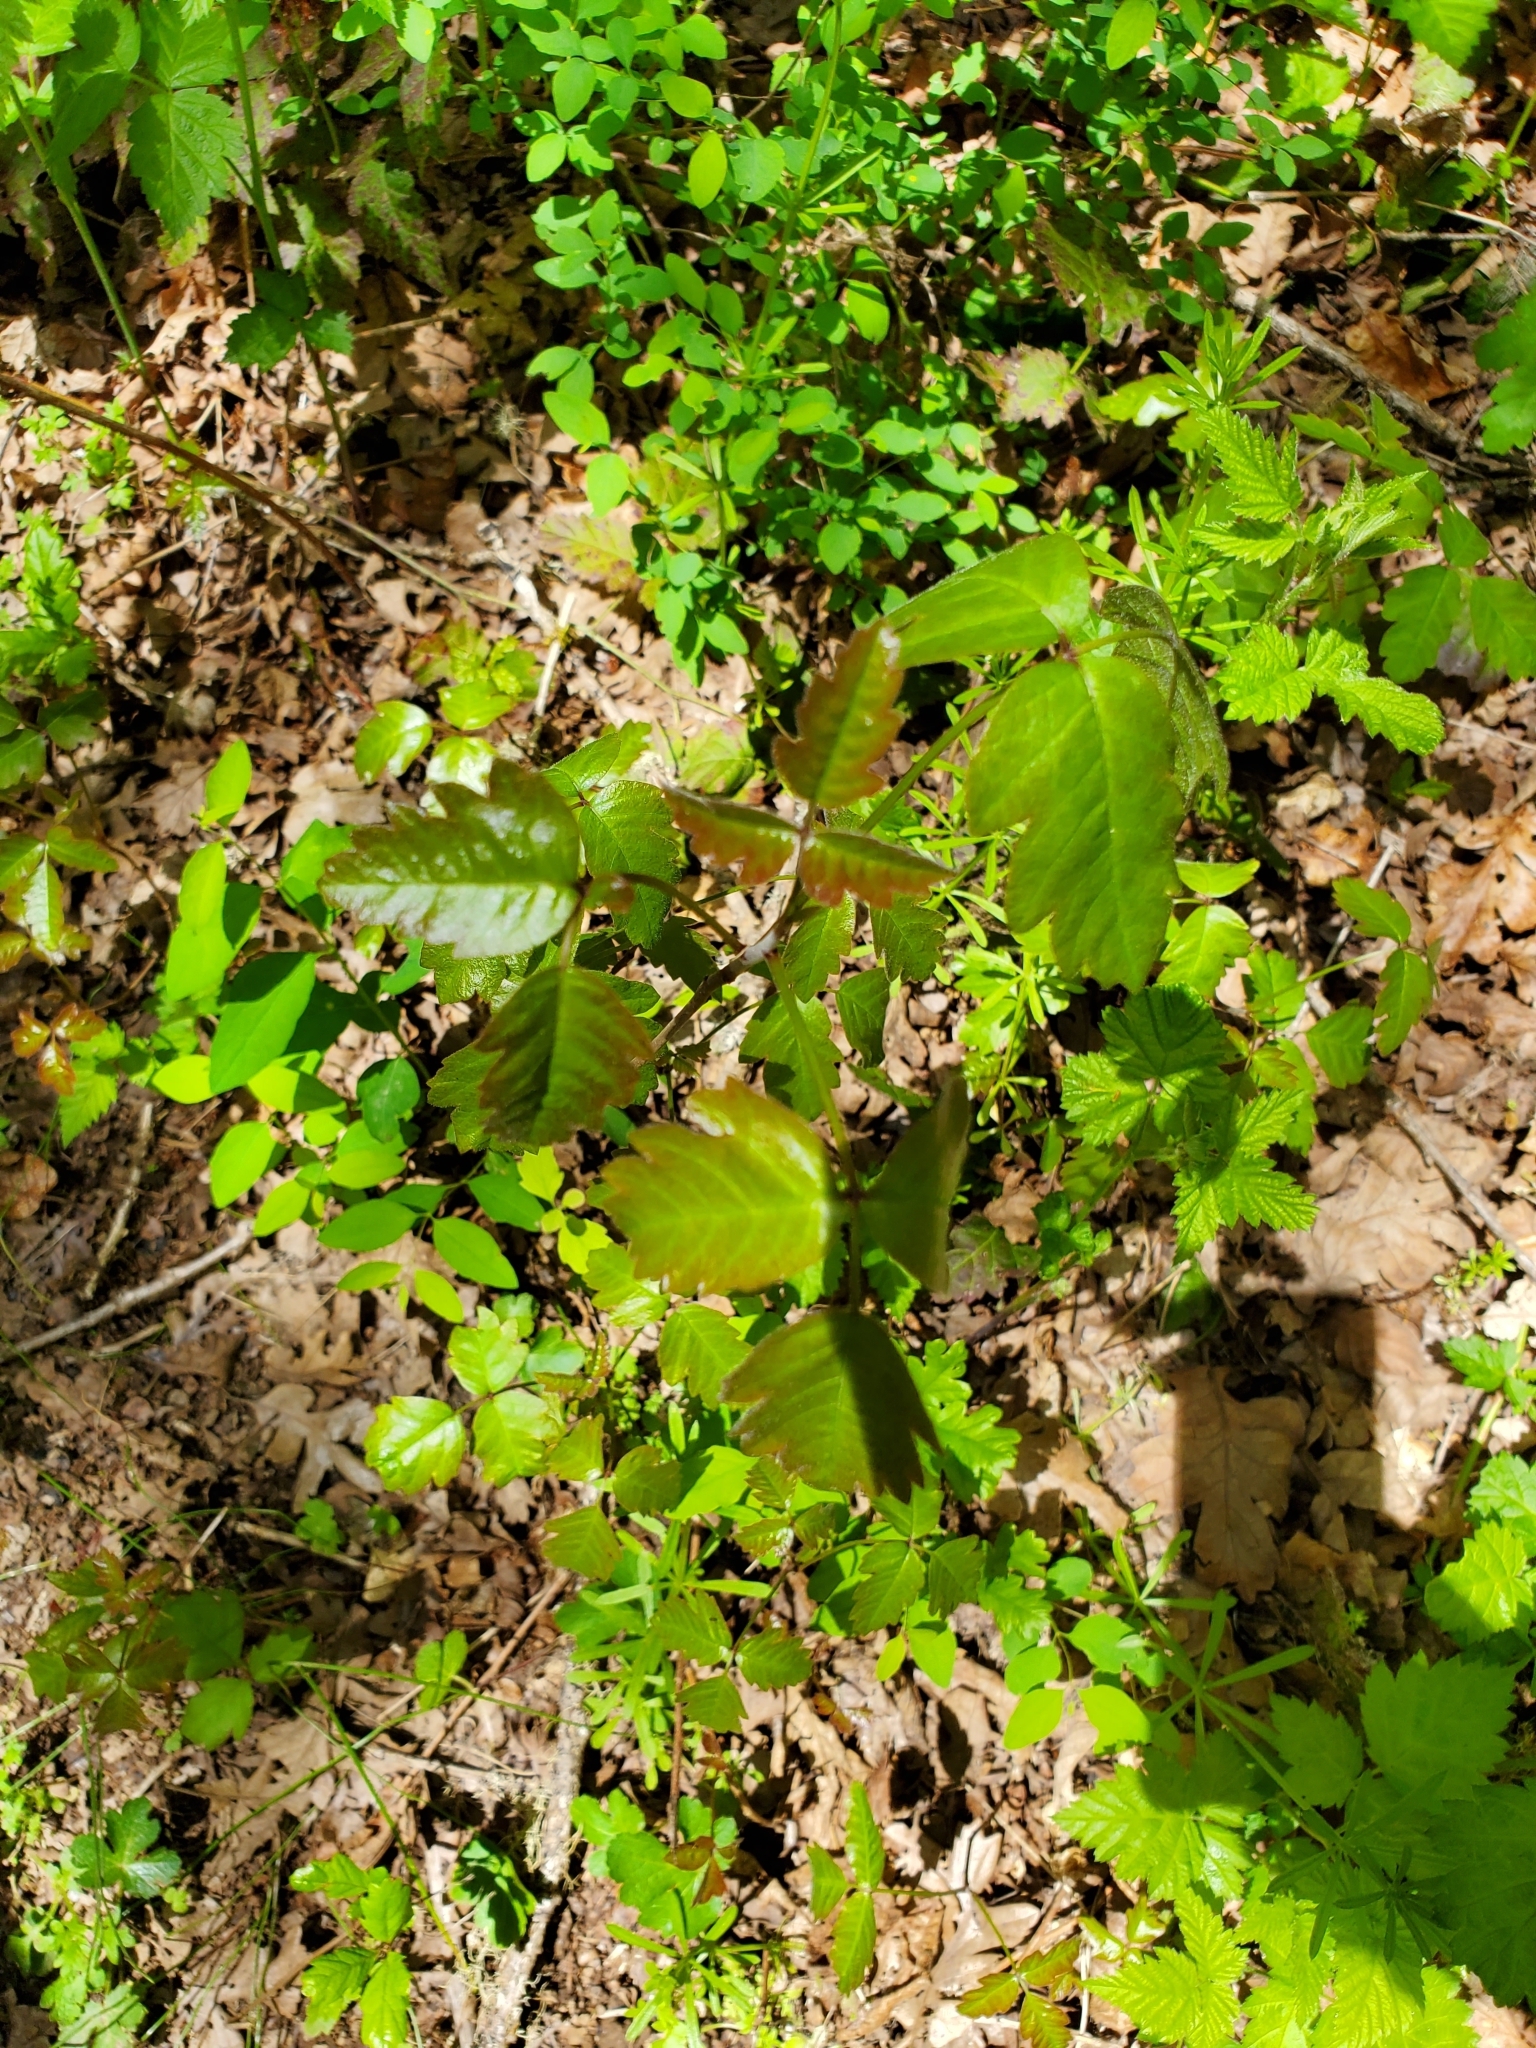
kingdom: Plantae
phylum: Tracheophyta
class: Magnoliopsida
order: Sapindales
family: Anacardiaceae
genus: Toxicodendron
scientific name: Toxicodendron diversilobum
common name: Pacific poison-oak
